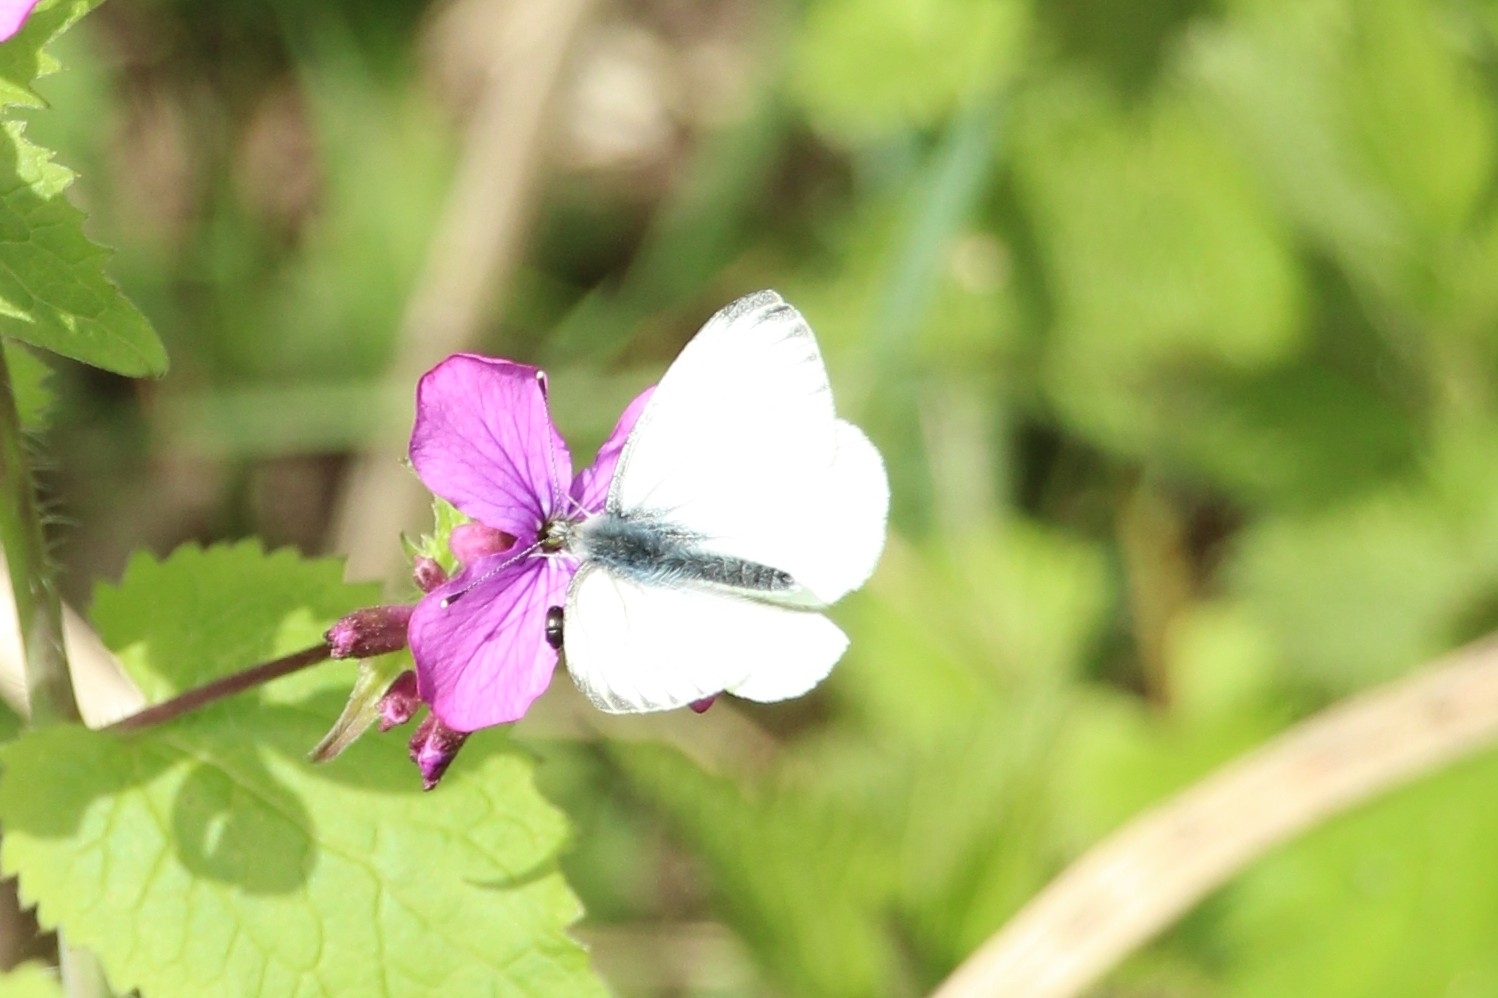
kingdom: Animalia
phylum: Arthropoda
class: Insecta
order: Lepidoptera
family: Pieridae
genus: Pieris
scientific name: Pieris napi
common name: Green-veined white
